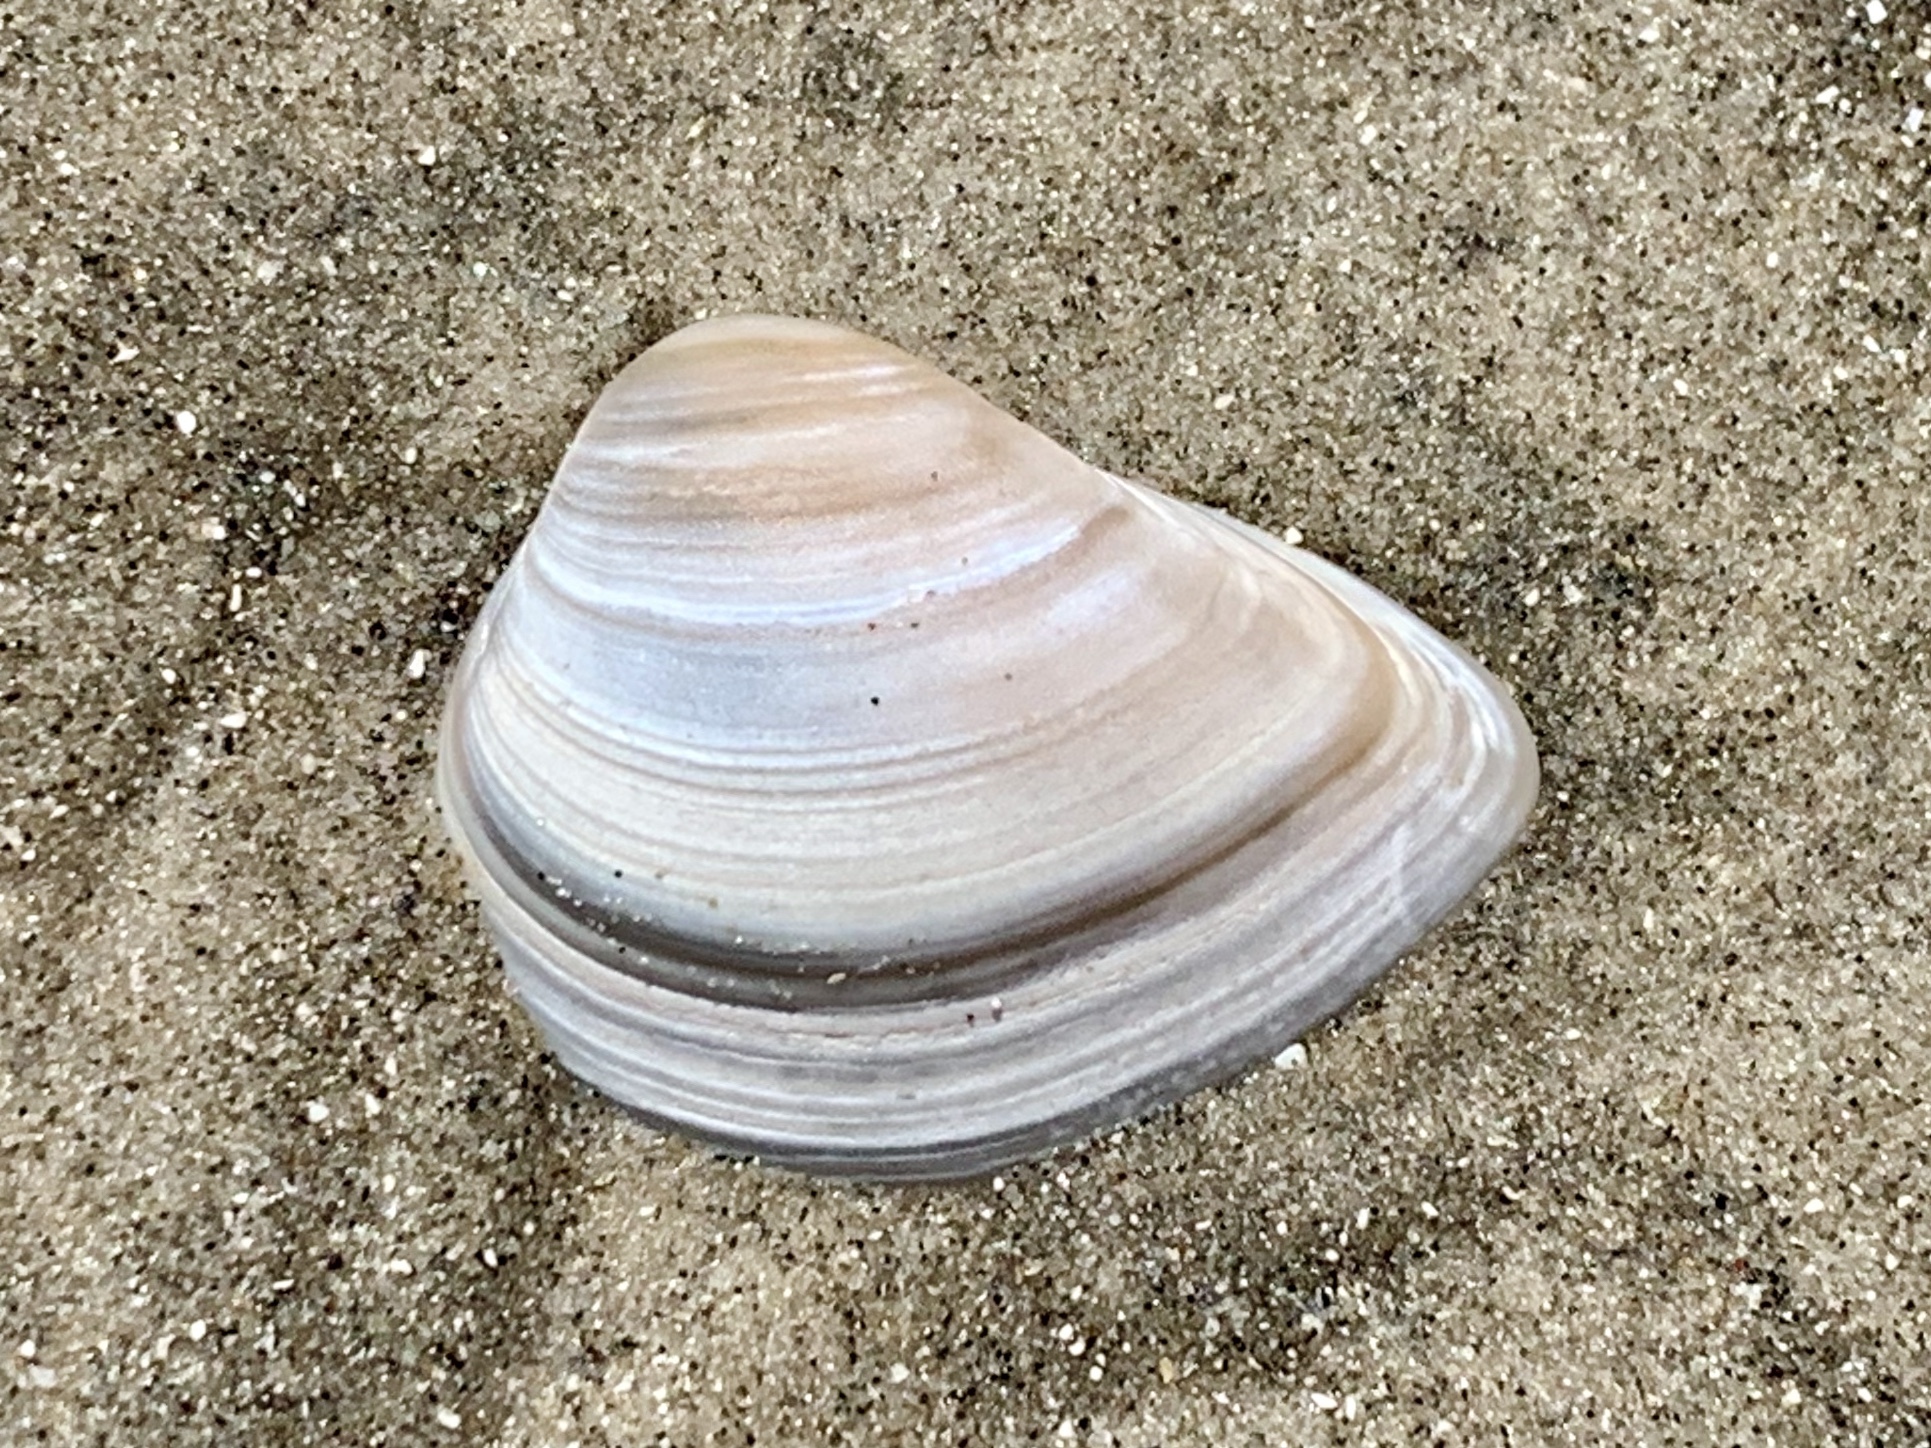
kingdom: Animalia
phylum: Mollusca
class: Bivalvia
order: Venerida
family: Mactridae
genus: Rangia
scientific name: Rangia flexuosa
